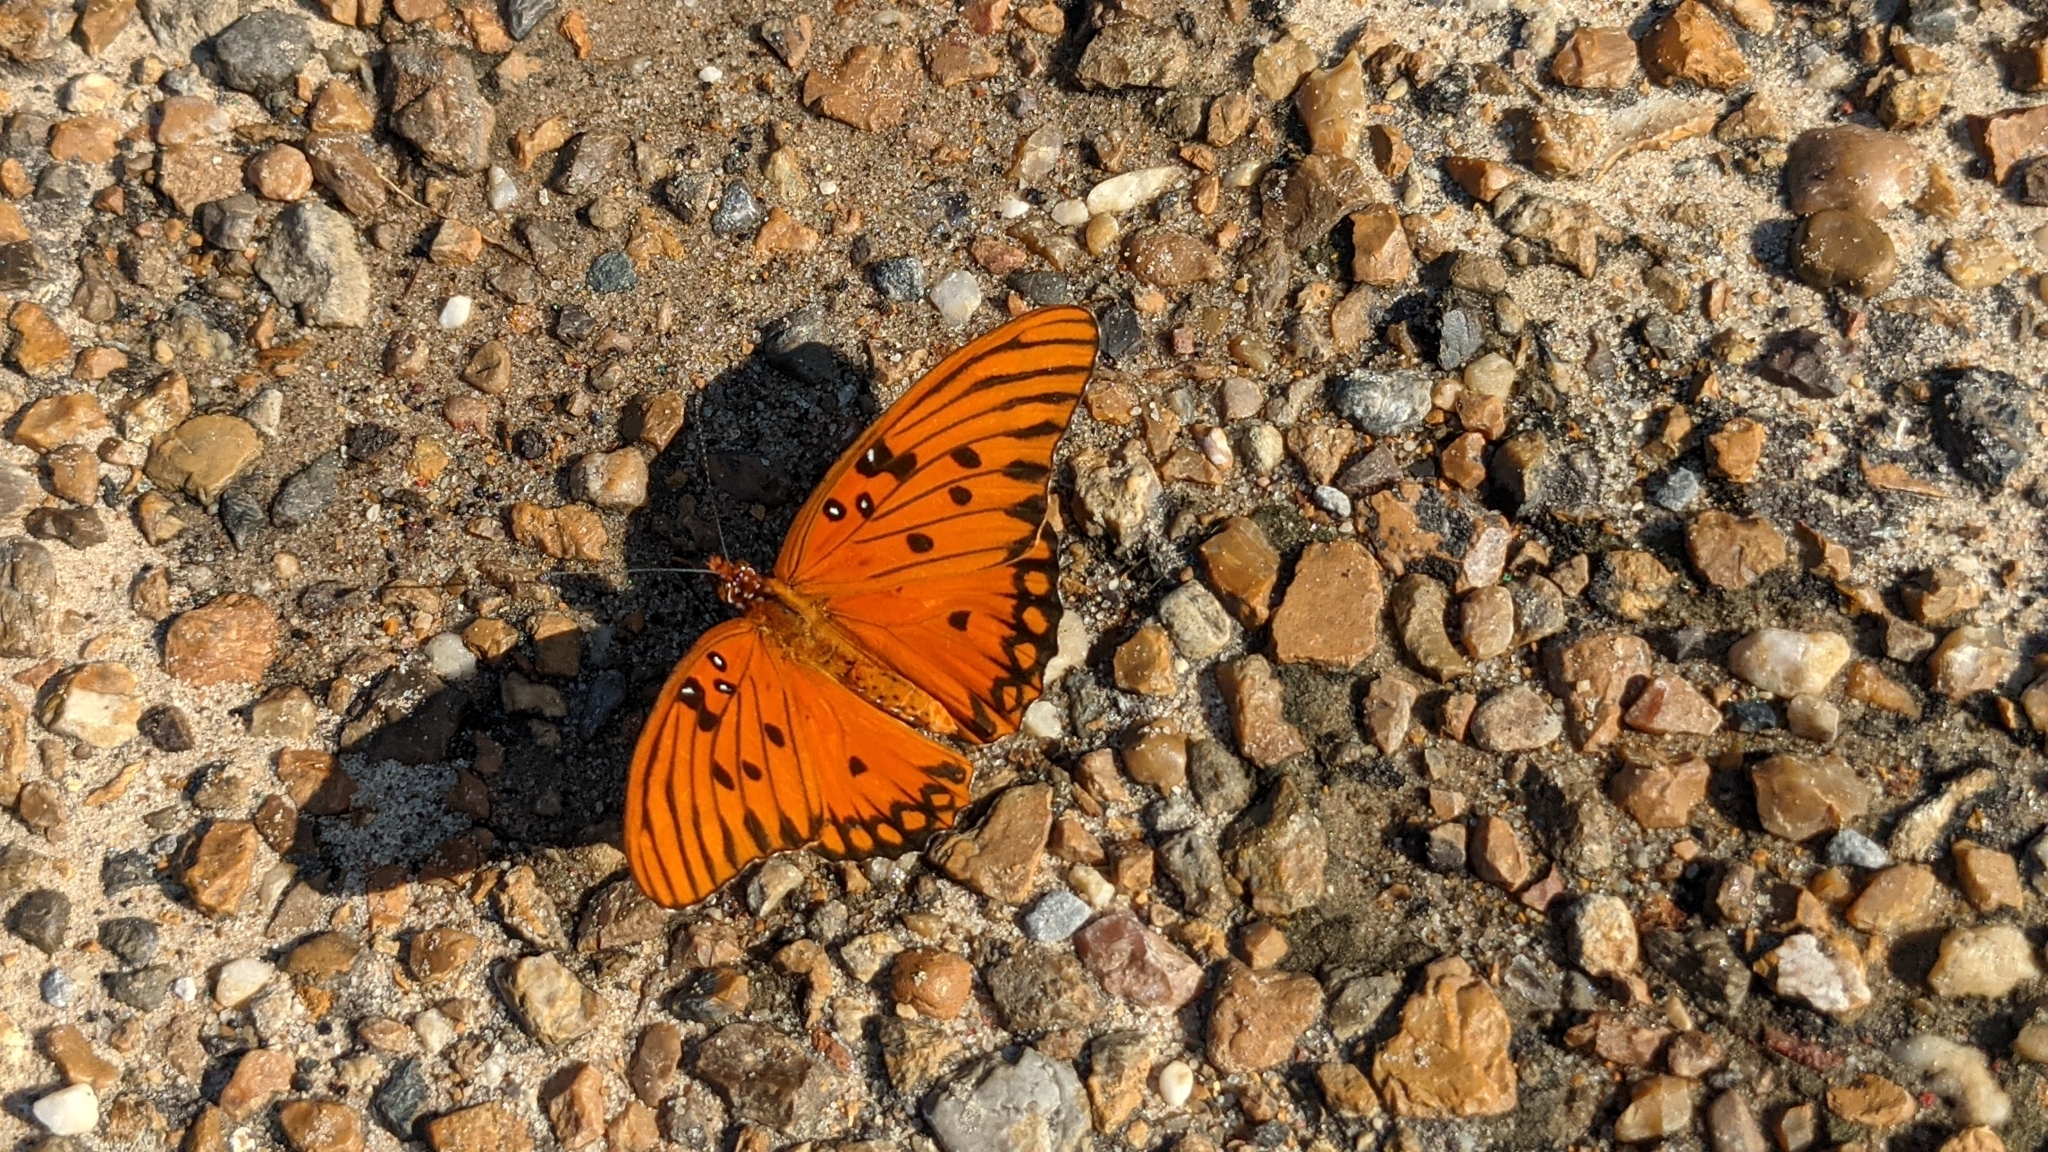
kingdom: Animalia
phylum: Arthropoda
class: Insecta
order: Lepidoptera
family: Nymphalidae
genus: Dione
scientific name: Dione vanillae
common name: Gulf fritillary
